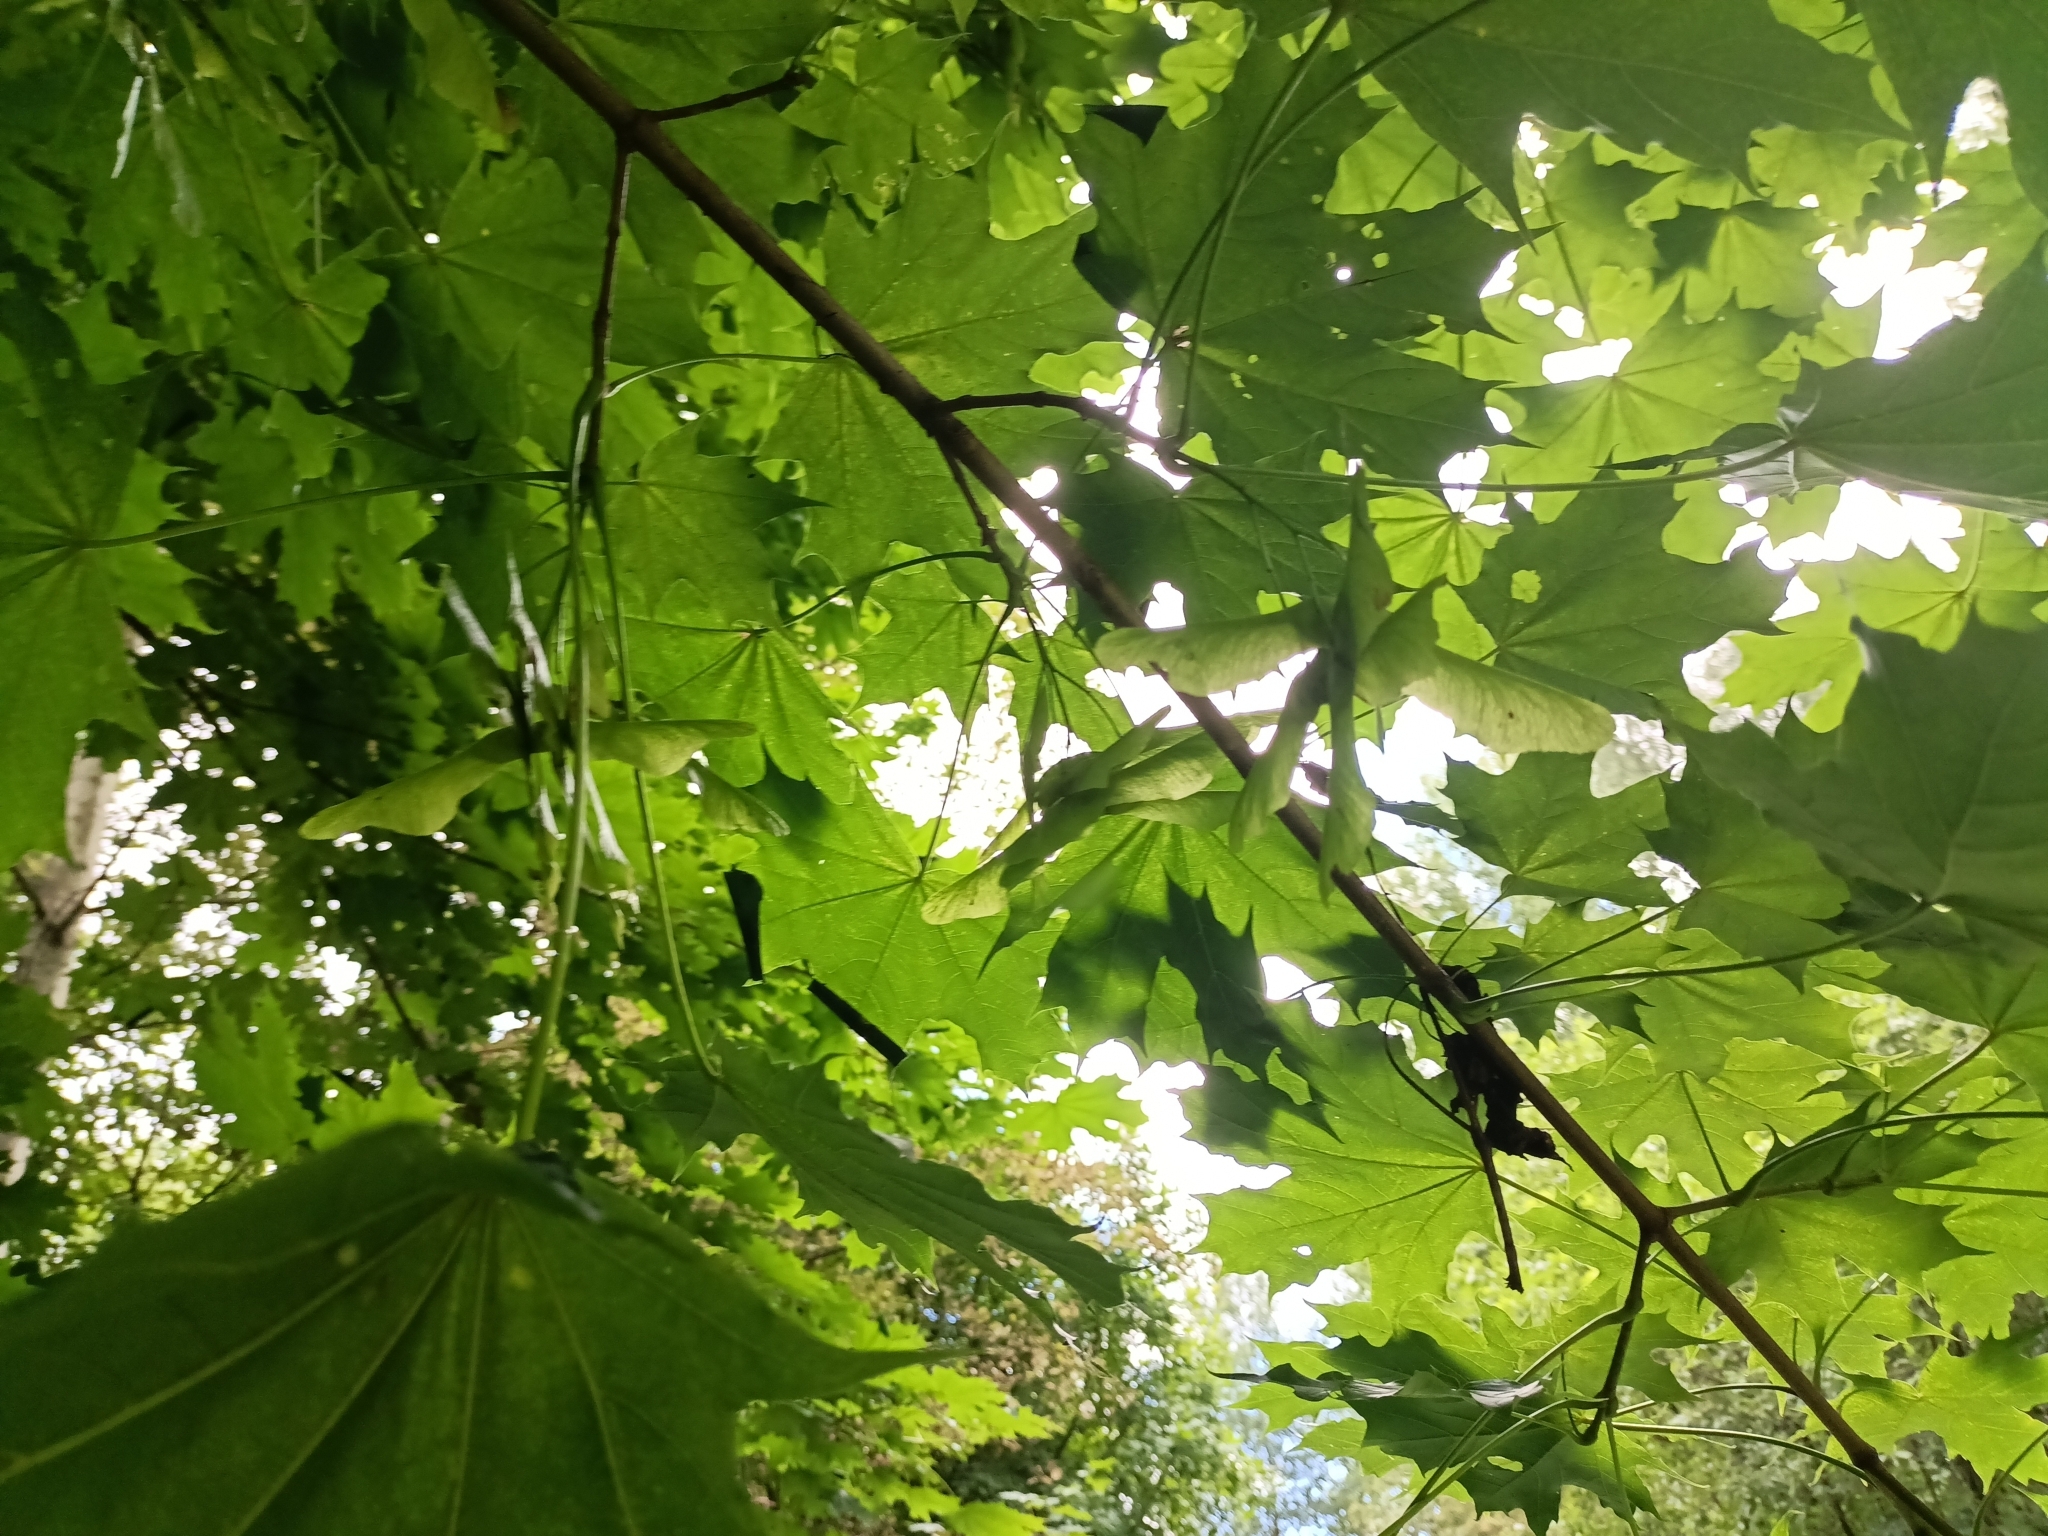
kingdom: Plantae
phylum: Tracheophyta
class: Magnoliopsida
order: Sapindales
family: Sapindaceae
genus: Acer
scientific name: Acer platanoides
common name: Norway maple
